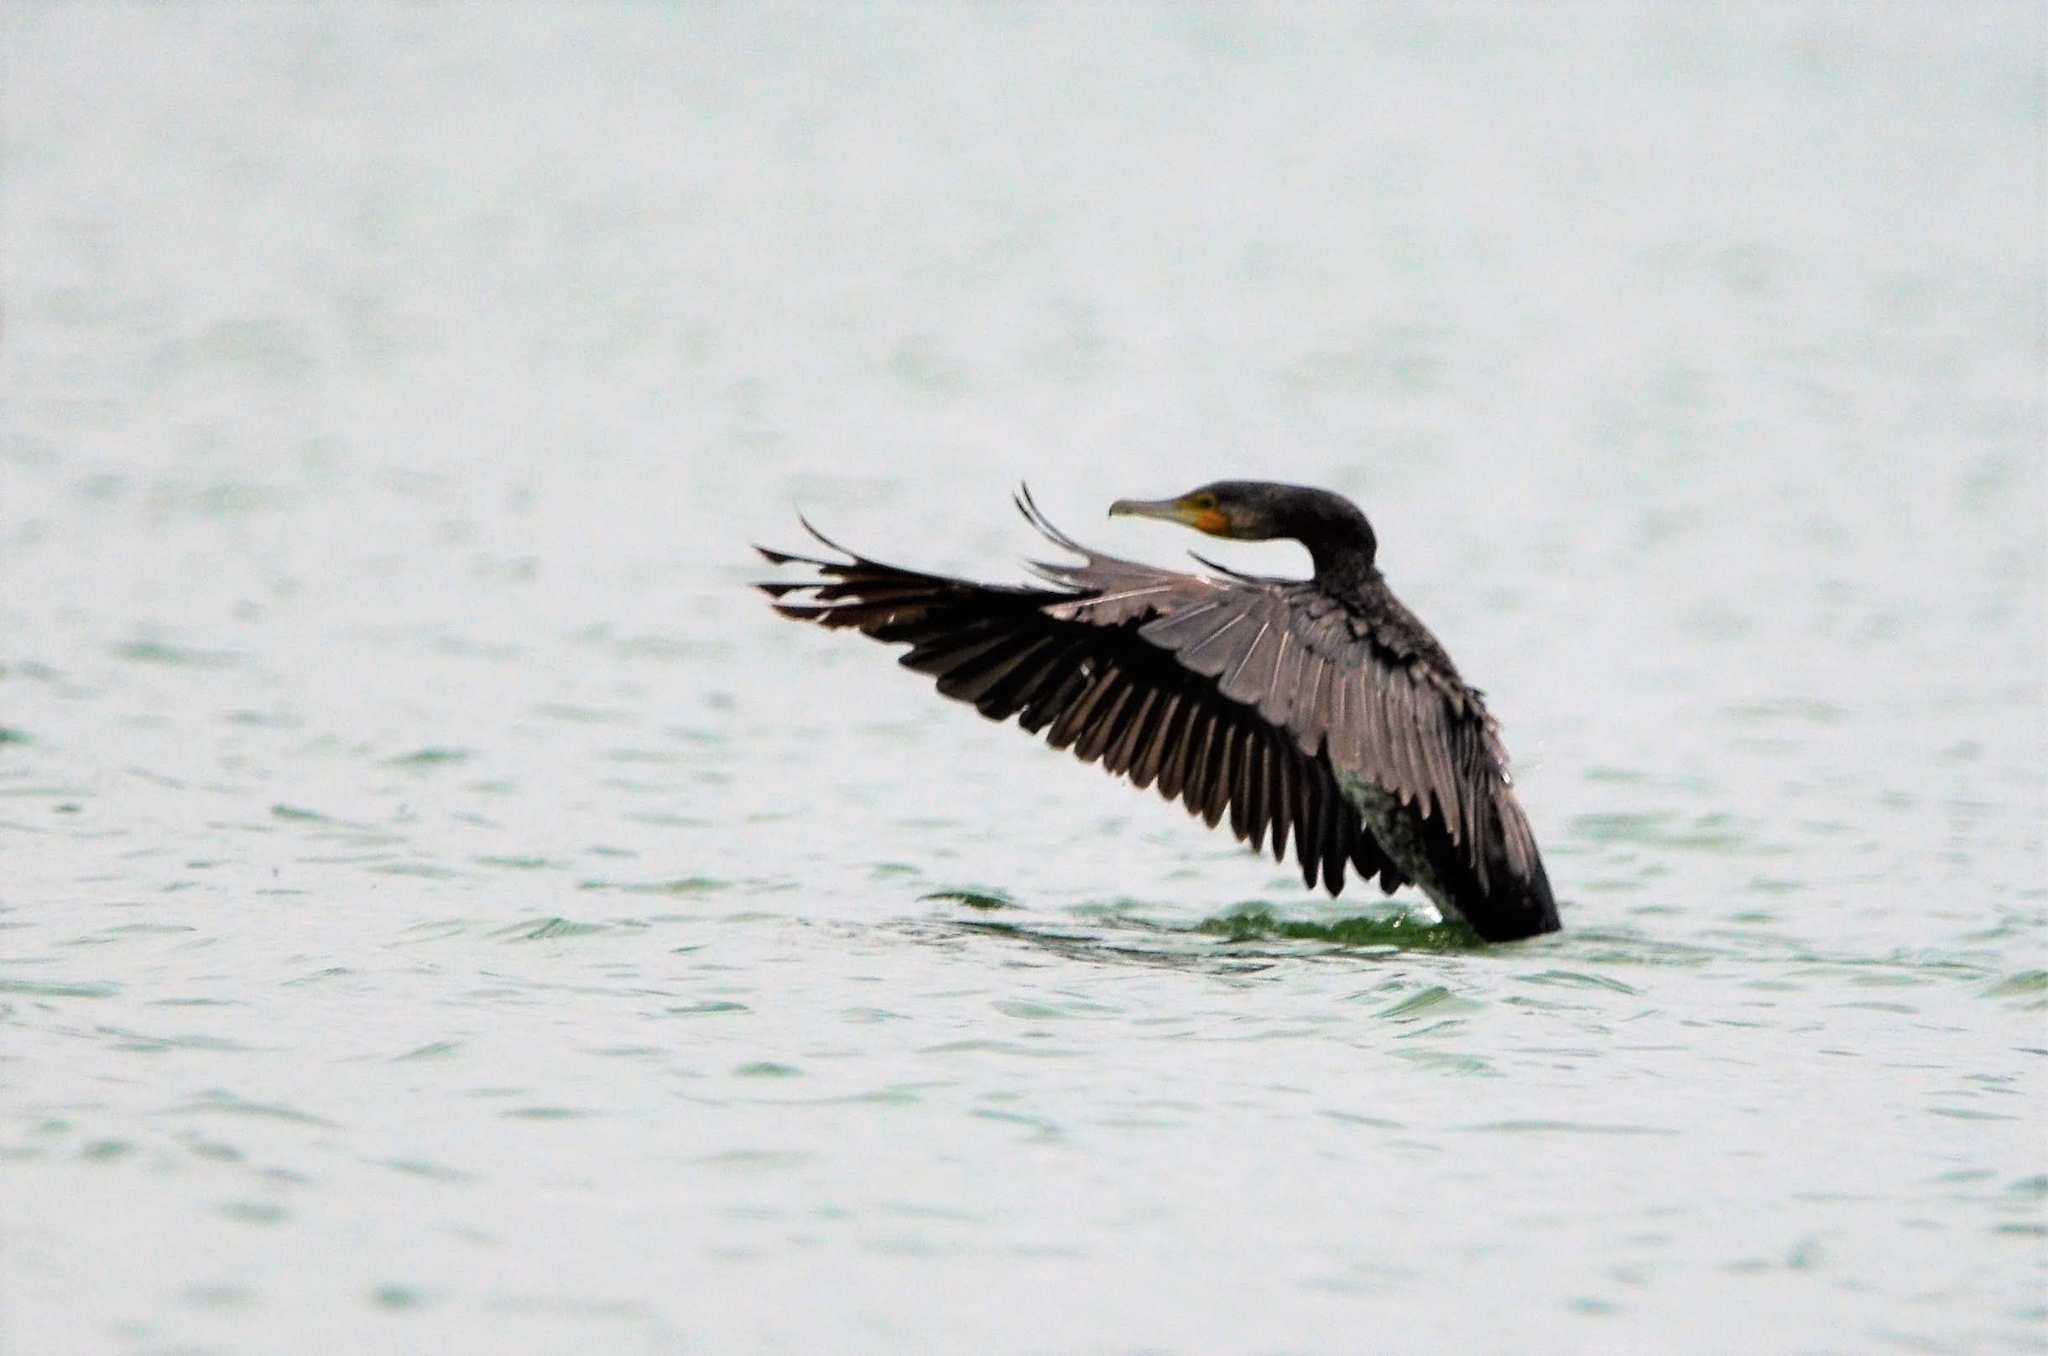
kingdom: Animalia
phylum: Chordata
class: Aves
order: Suliformes
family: Phalacrocoracidae
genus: Phalacrocorax
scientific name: Phalacrocorax carbo
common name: Great cormorant
